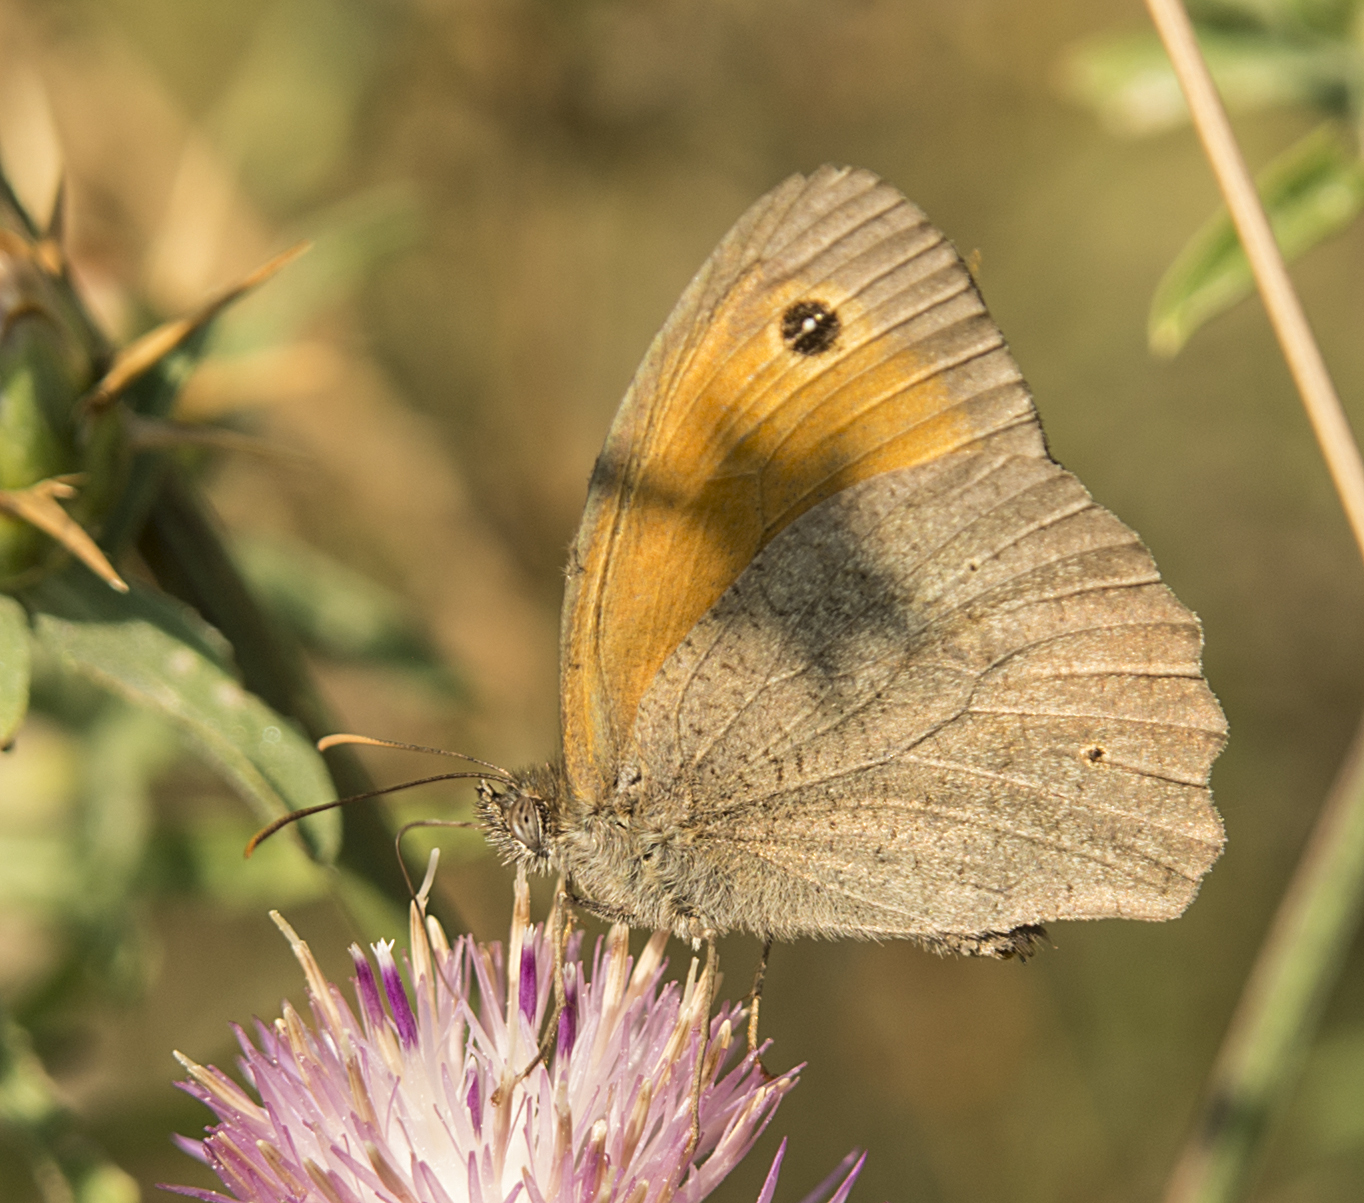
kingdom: Animalia
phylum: Arthropoda
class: Insecta
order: Lepidoptera
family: Nymphalidae
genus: Maniola
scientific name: Maniola jurtina
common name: Meadow brown
